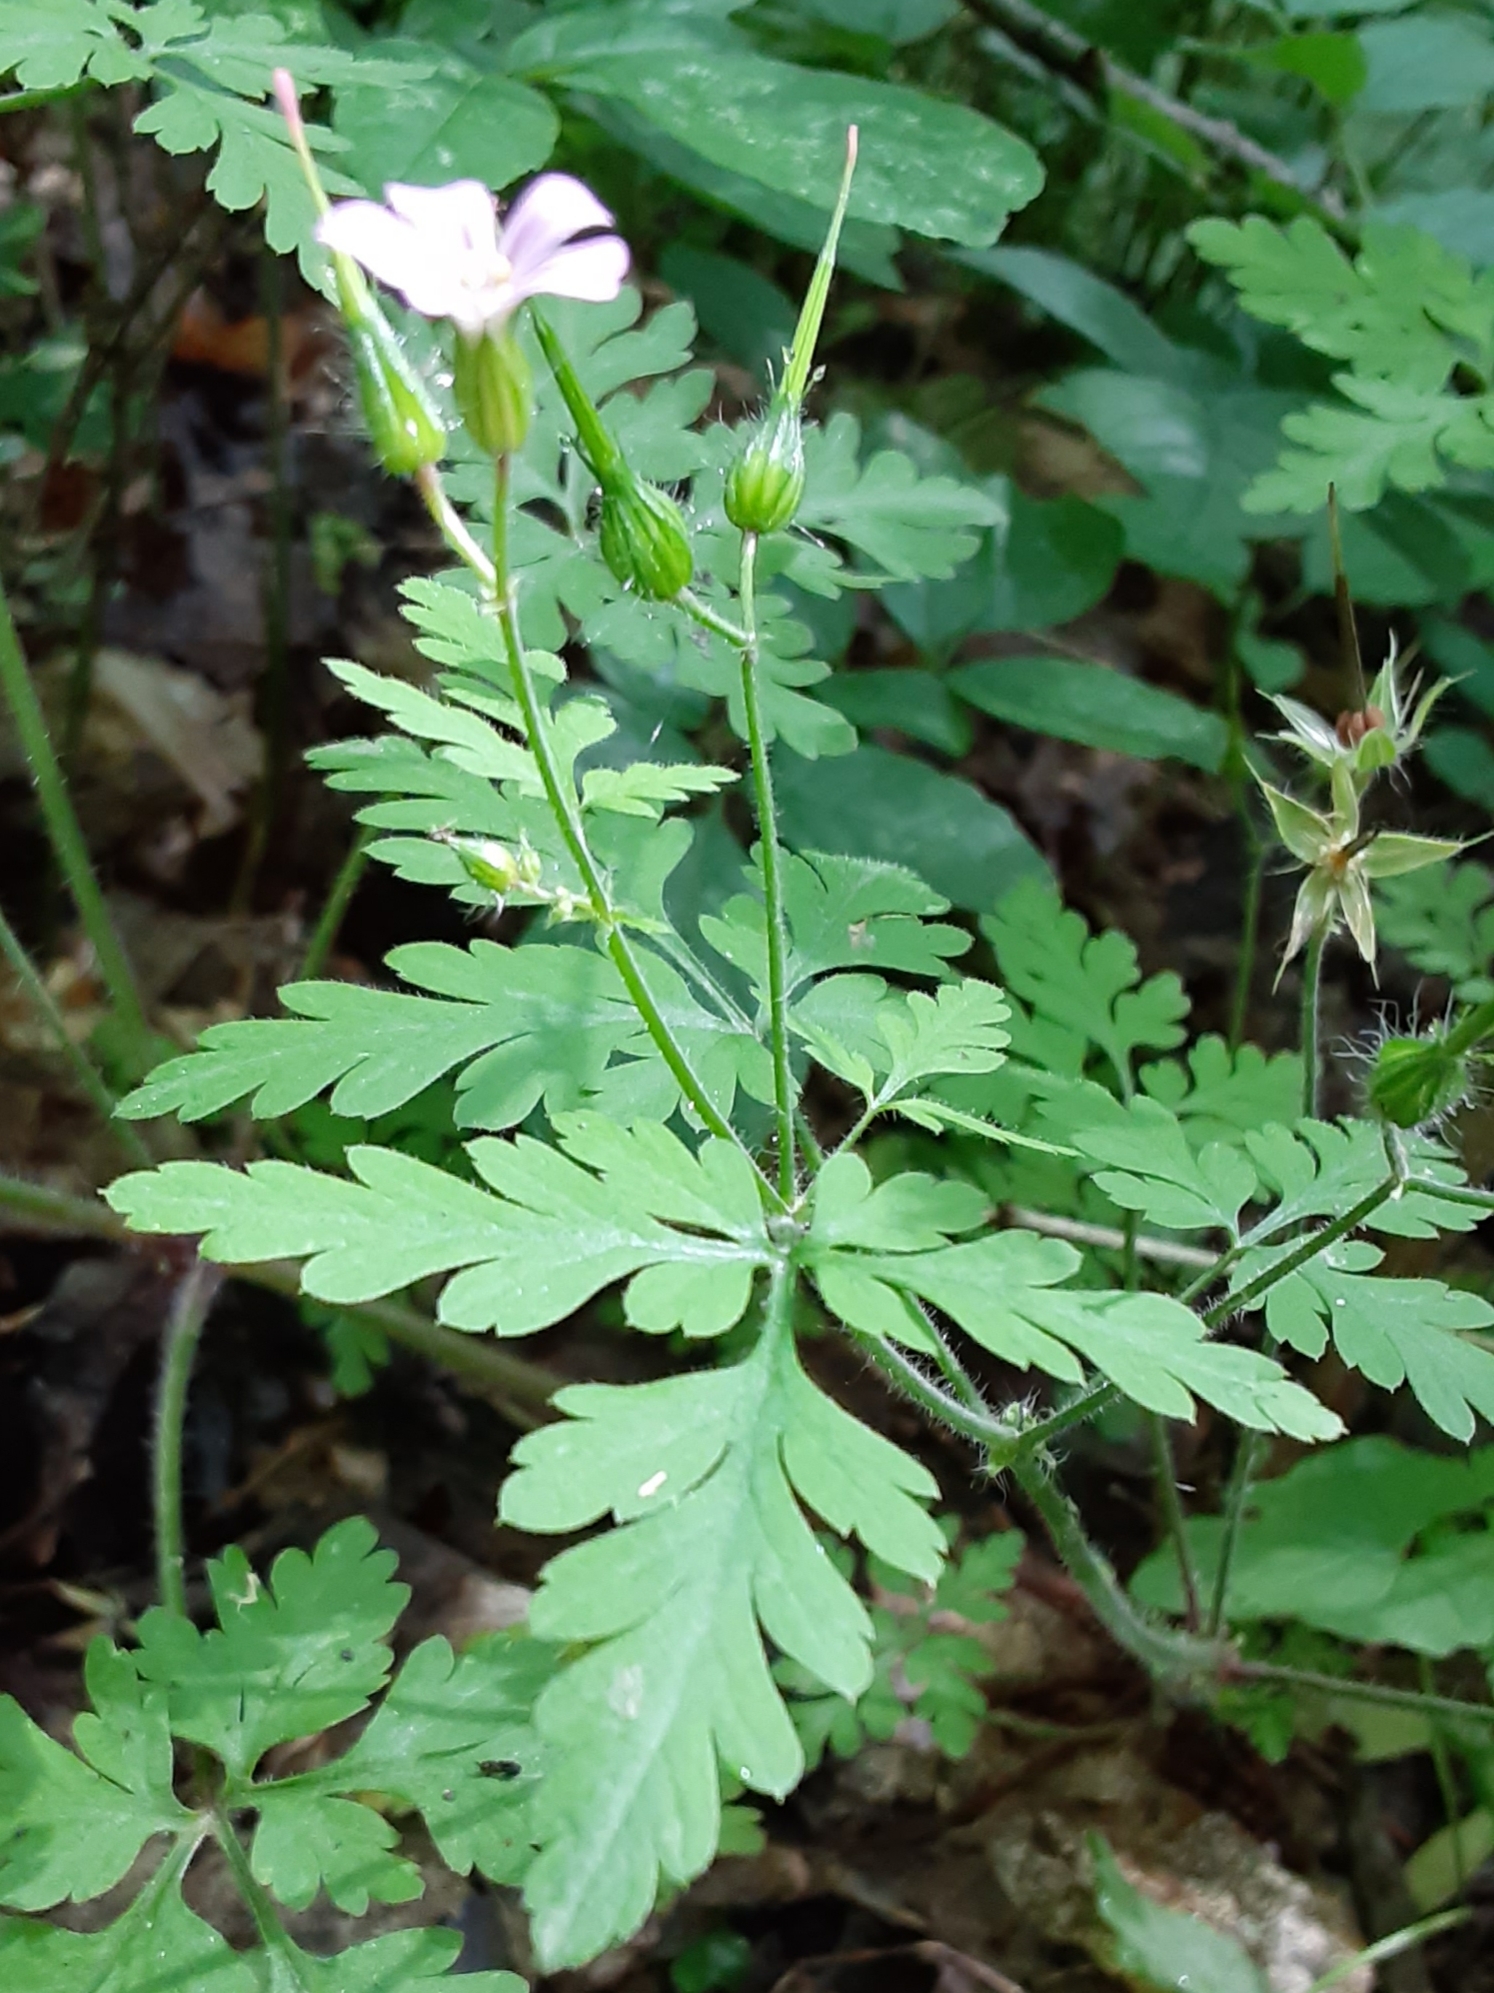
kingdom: Plantae
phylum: Tracheophyta
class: Magnoliopsida
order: Geraniales
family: Geraniaceae
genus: Geranium
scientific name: Geranium robertianum
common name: Herb-robert
